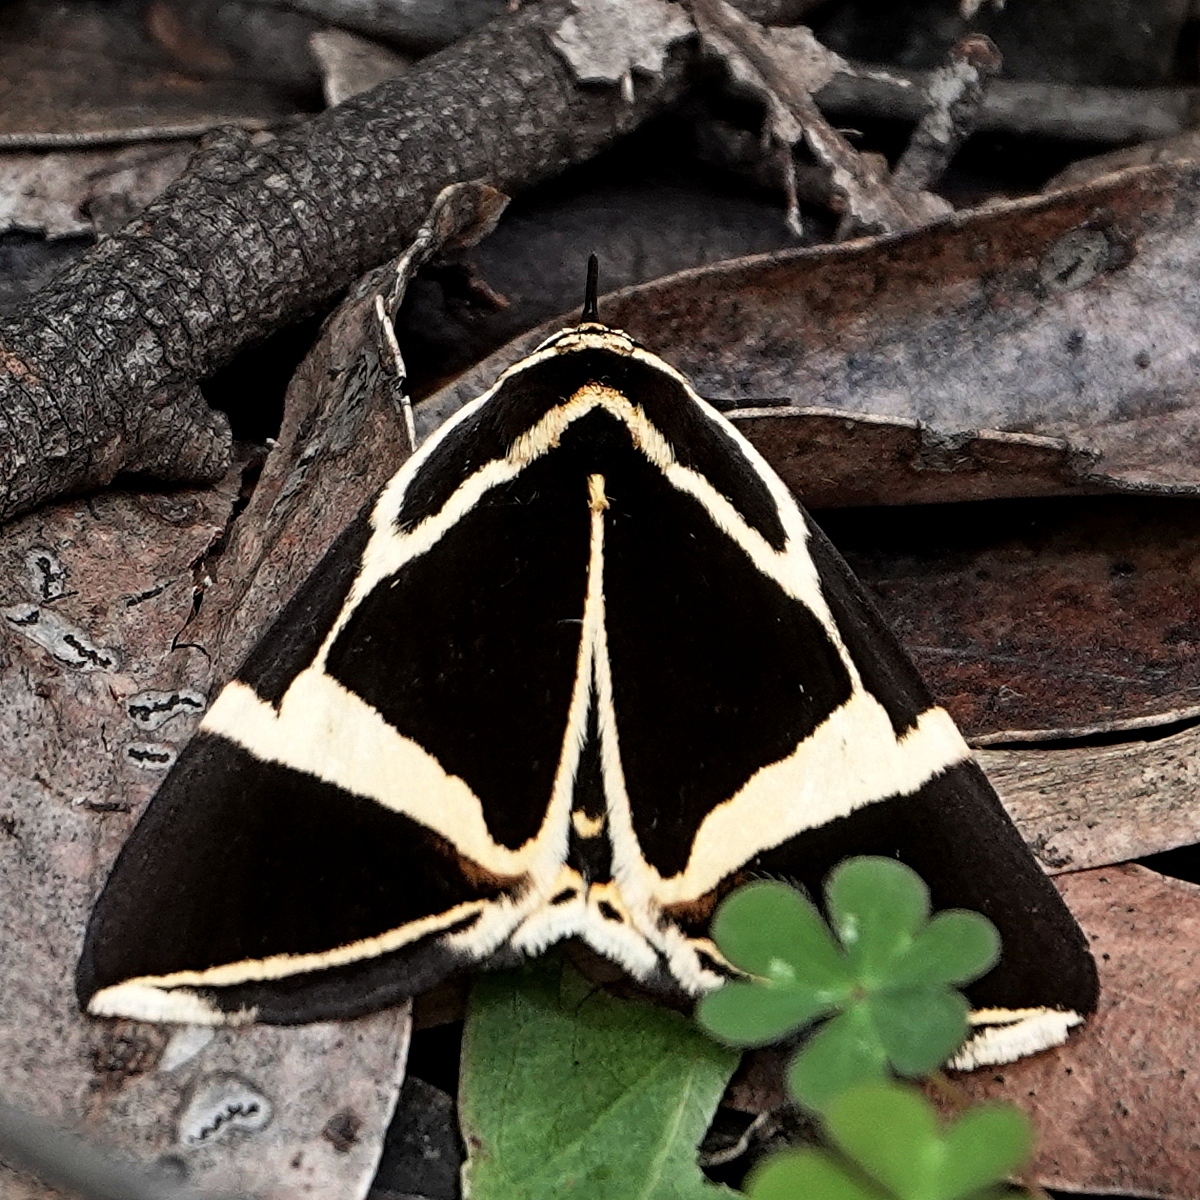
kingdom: Animalia
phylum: Arthropoda
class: Insecta
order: Lepidoptera
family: Erebidae
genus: Fodina
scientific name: Fodina ostorius
